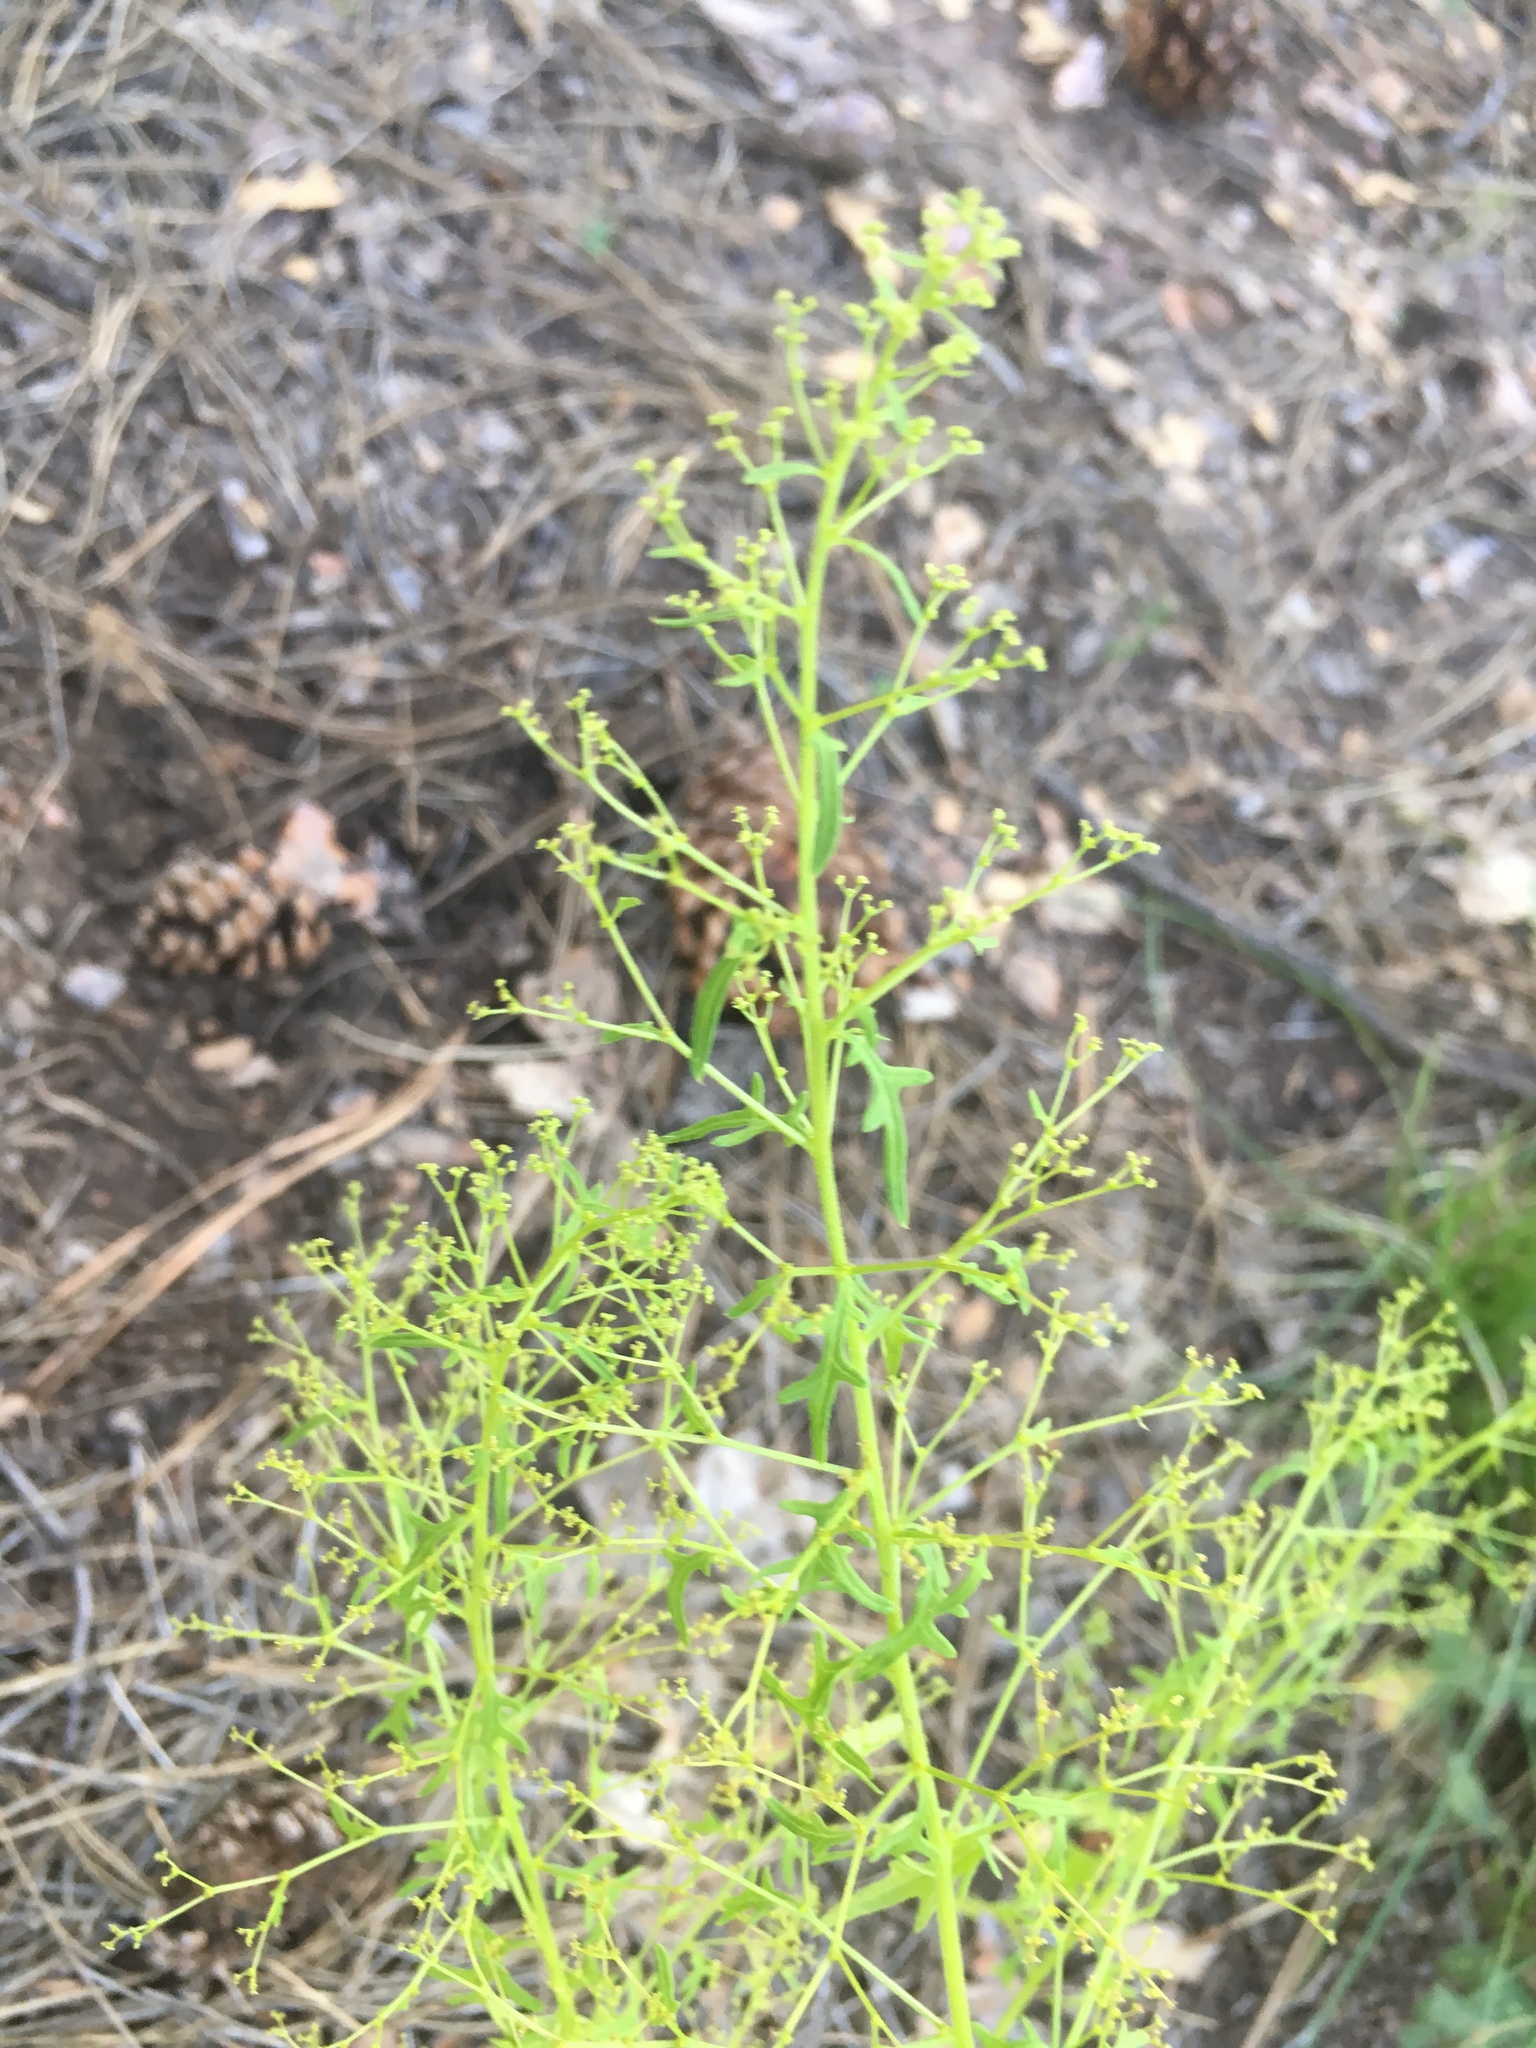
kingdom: Plantae
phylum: Tracheophyta
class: Magnoliopsida
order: Caryophyllales
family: Amaranthaceae
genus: Dysphania
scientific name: Dysphania incisa
